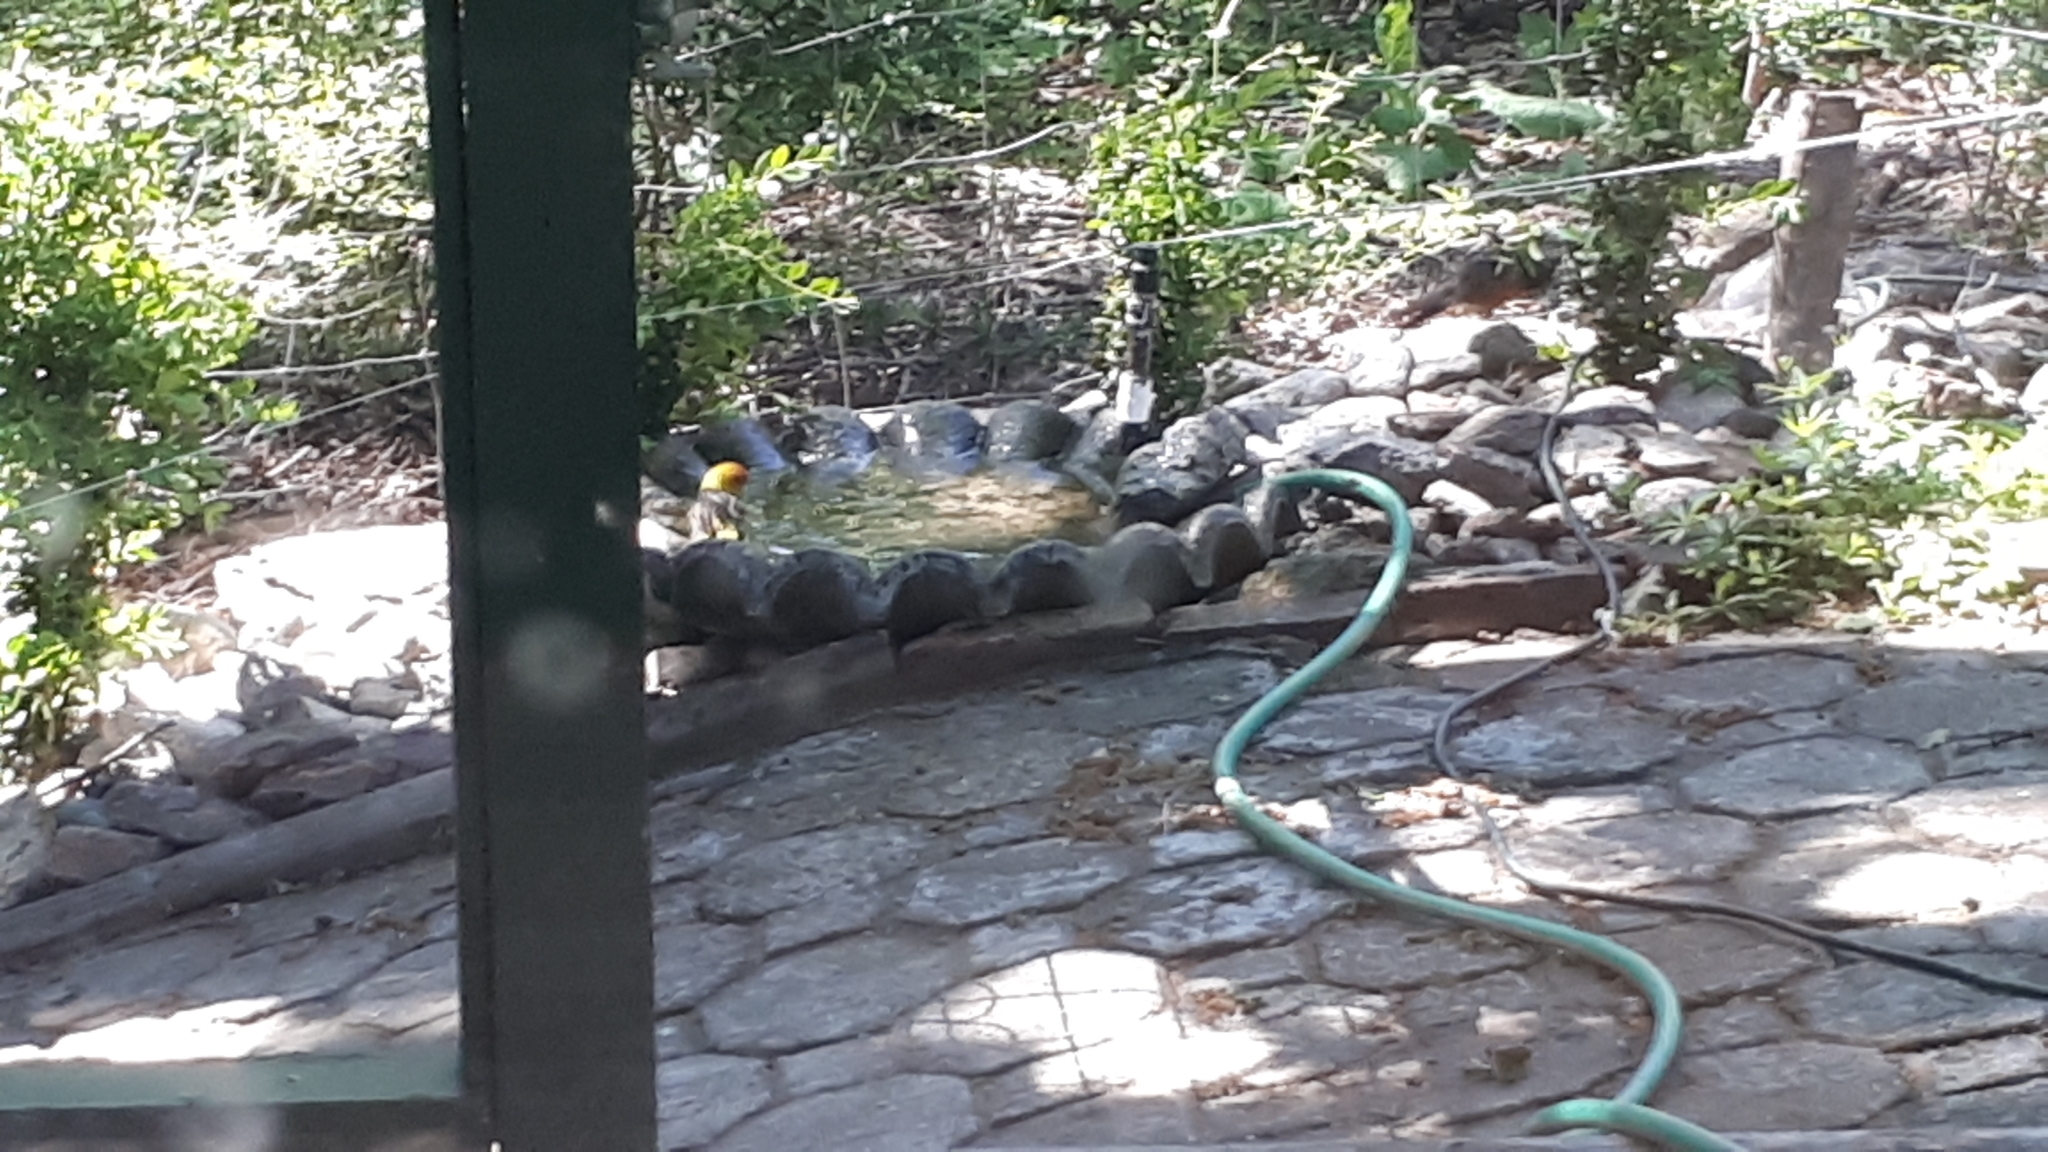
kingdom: Animalia
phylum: Chordata
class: Aves
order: Passeriformes
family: Cardinalidae
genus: Piranga
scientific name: Piranga ludoviciana
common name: Western tanager
